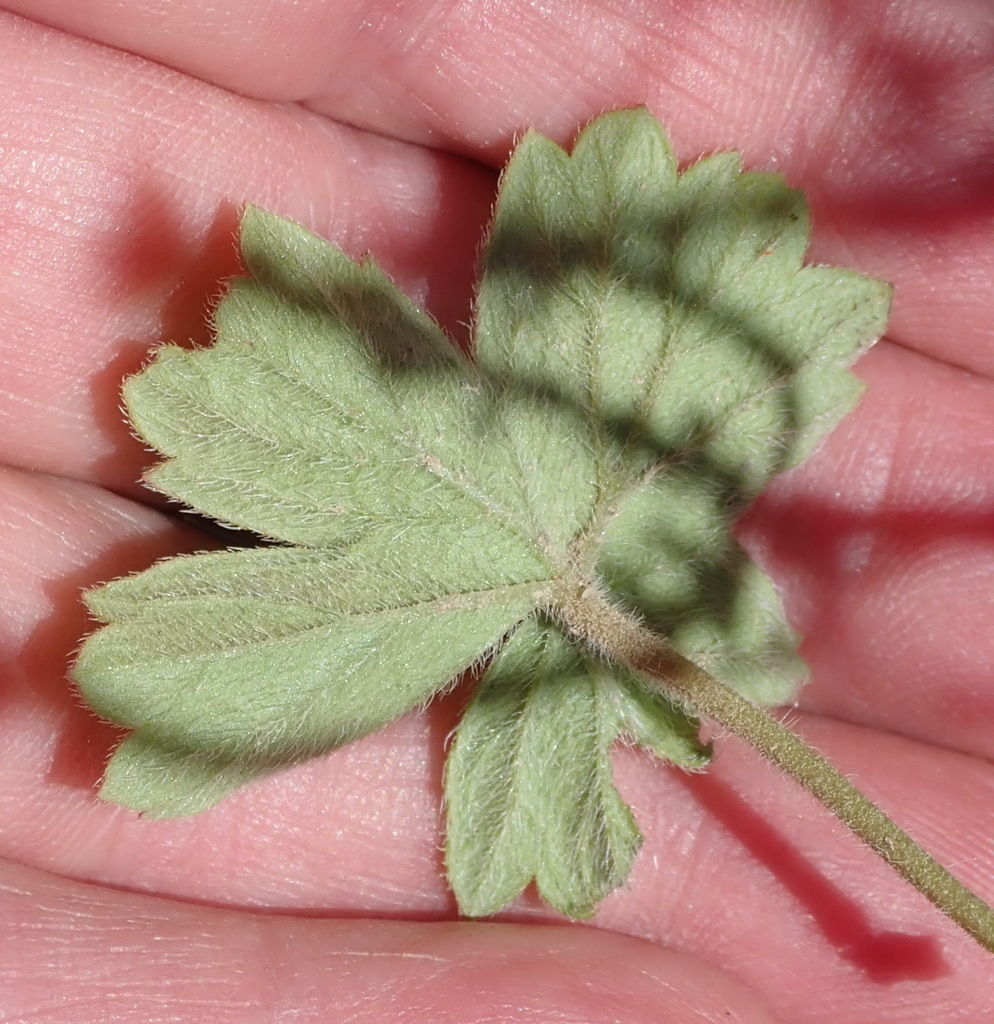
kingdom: Plantae
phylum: Tracheophyta
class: Magnoliopsida
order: Geraniales
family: Geraniaceae
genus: Pelargonium
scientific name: Pelargonium alchemilloides
